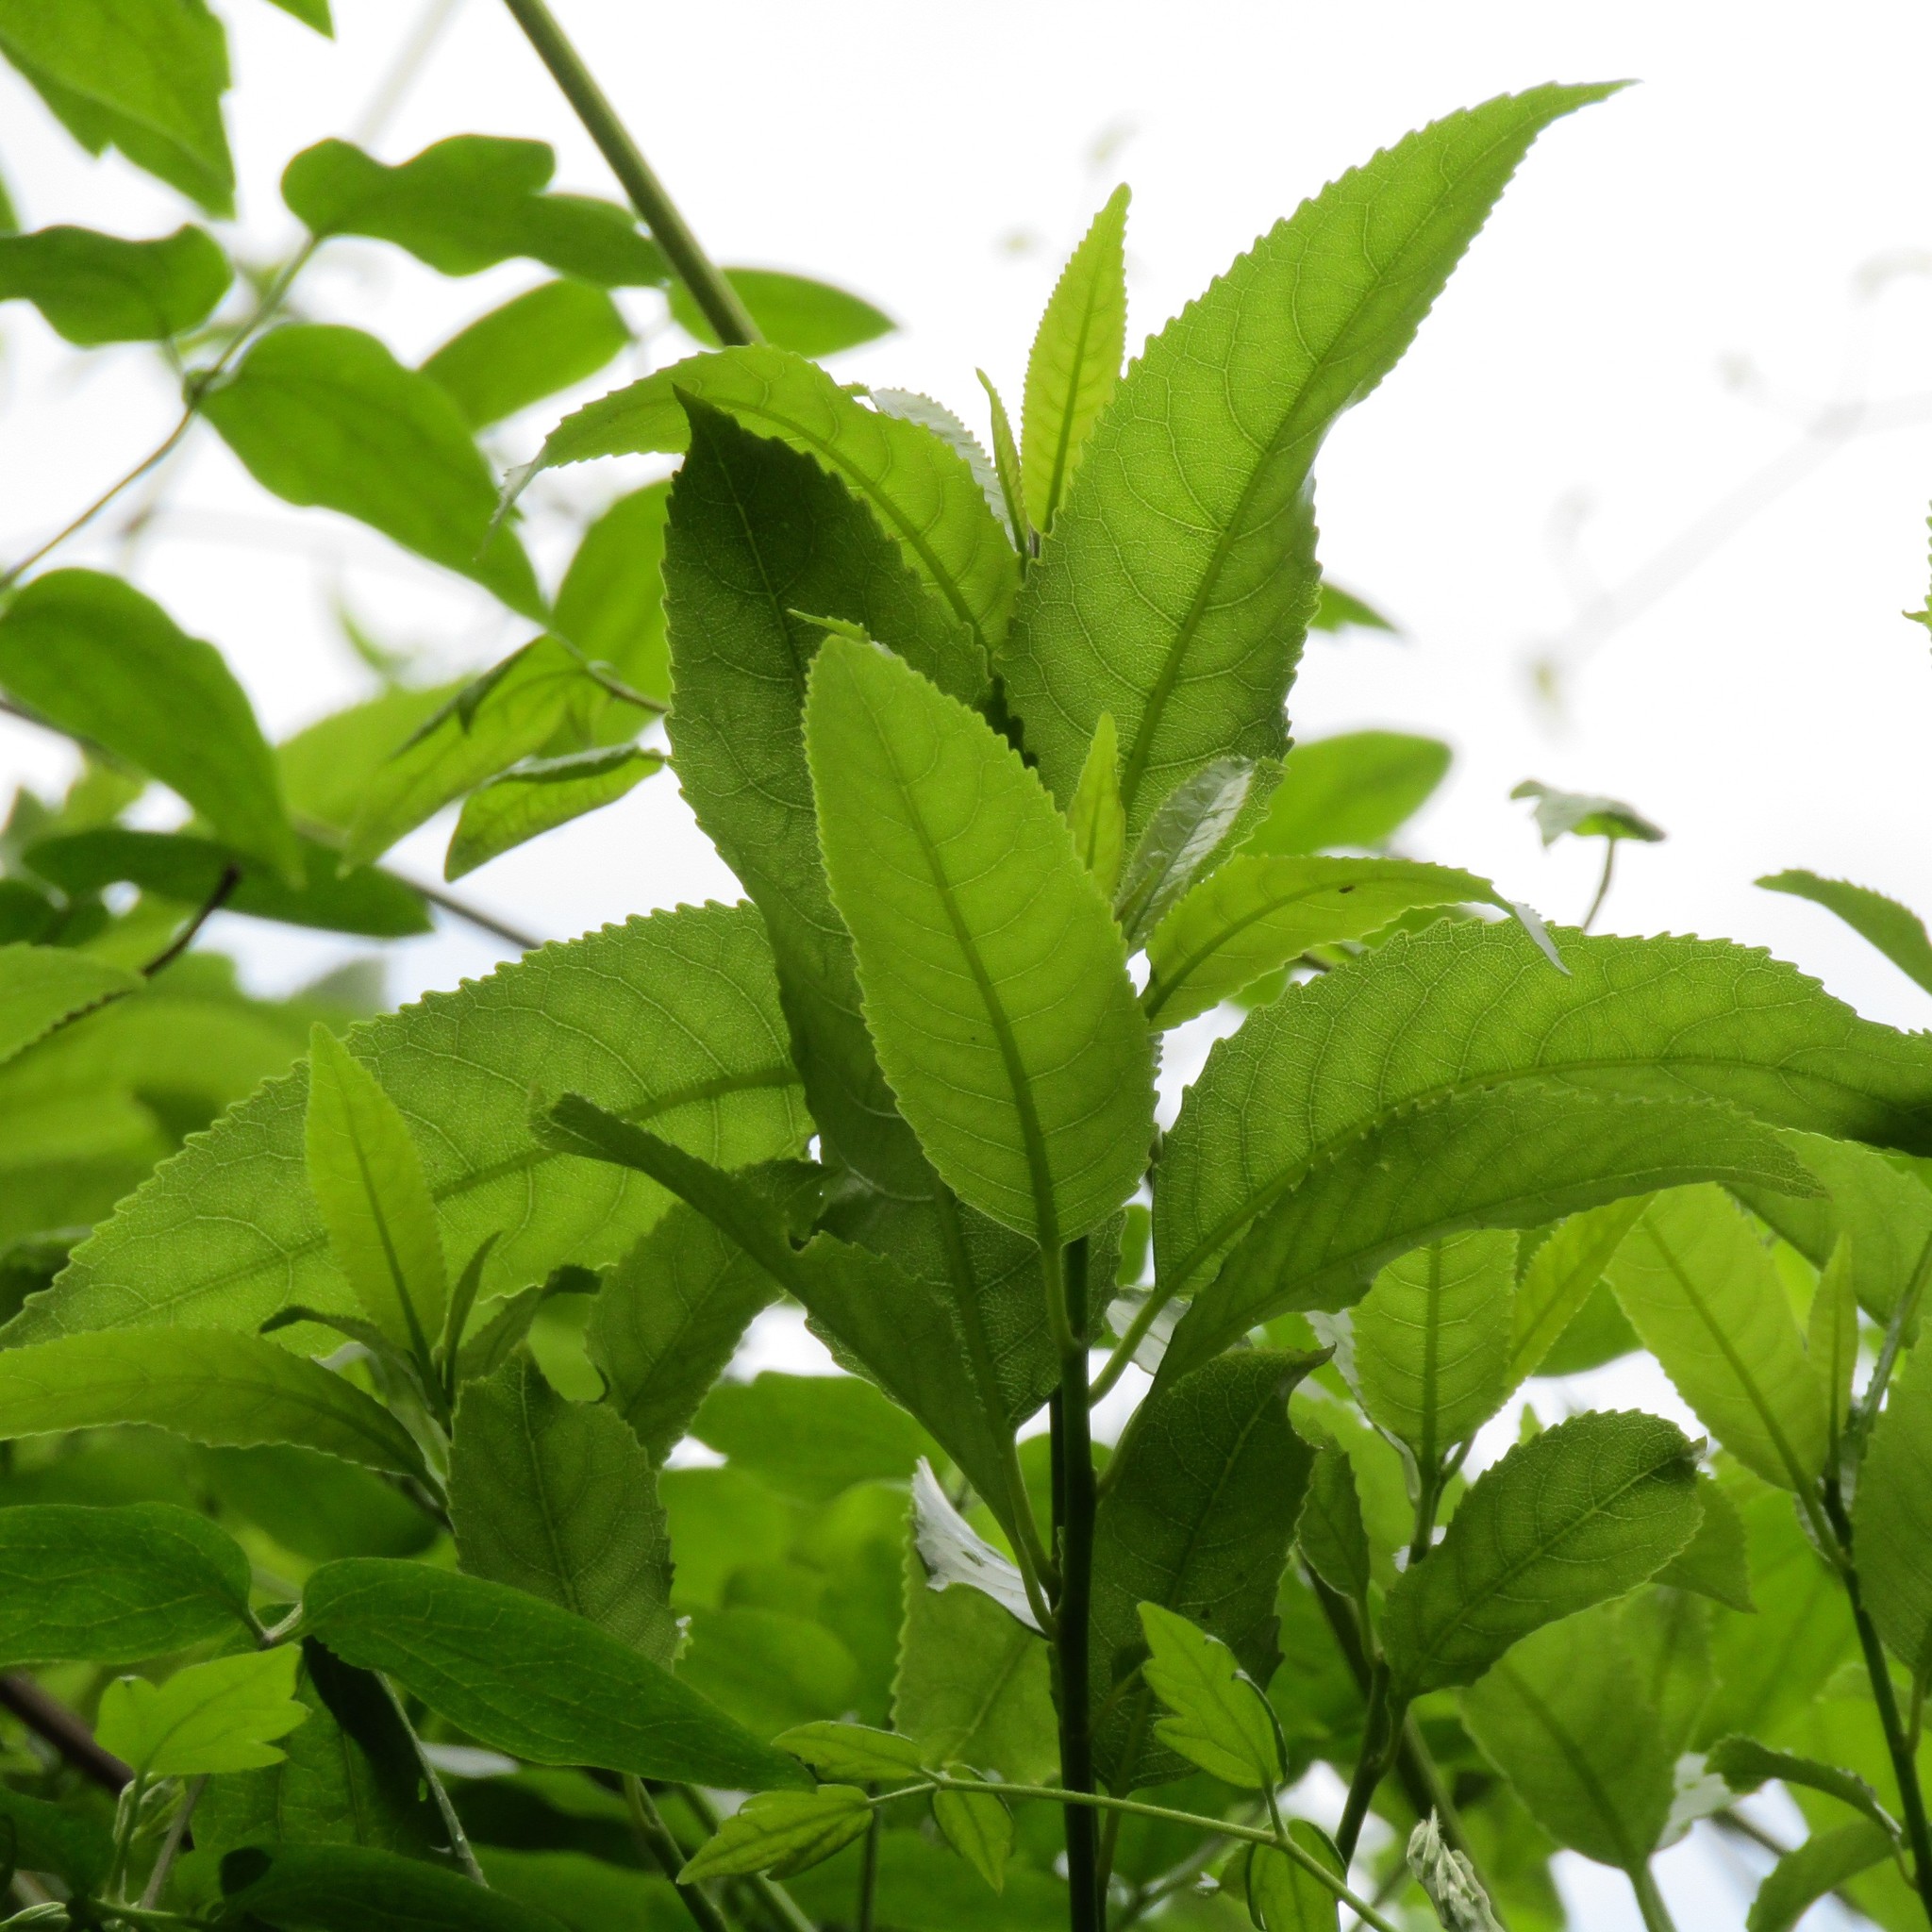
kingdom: Plantae
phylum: Tracheophyta
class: Magnoliopsida
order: Malpighiales
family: Violaceae
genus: Melicytus
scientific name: Melicytus ramiflorus
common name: Mahoe
